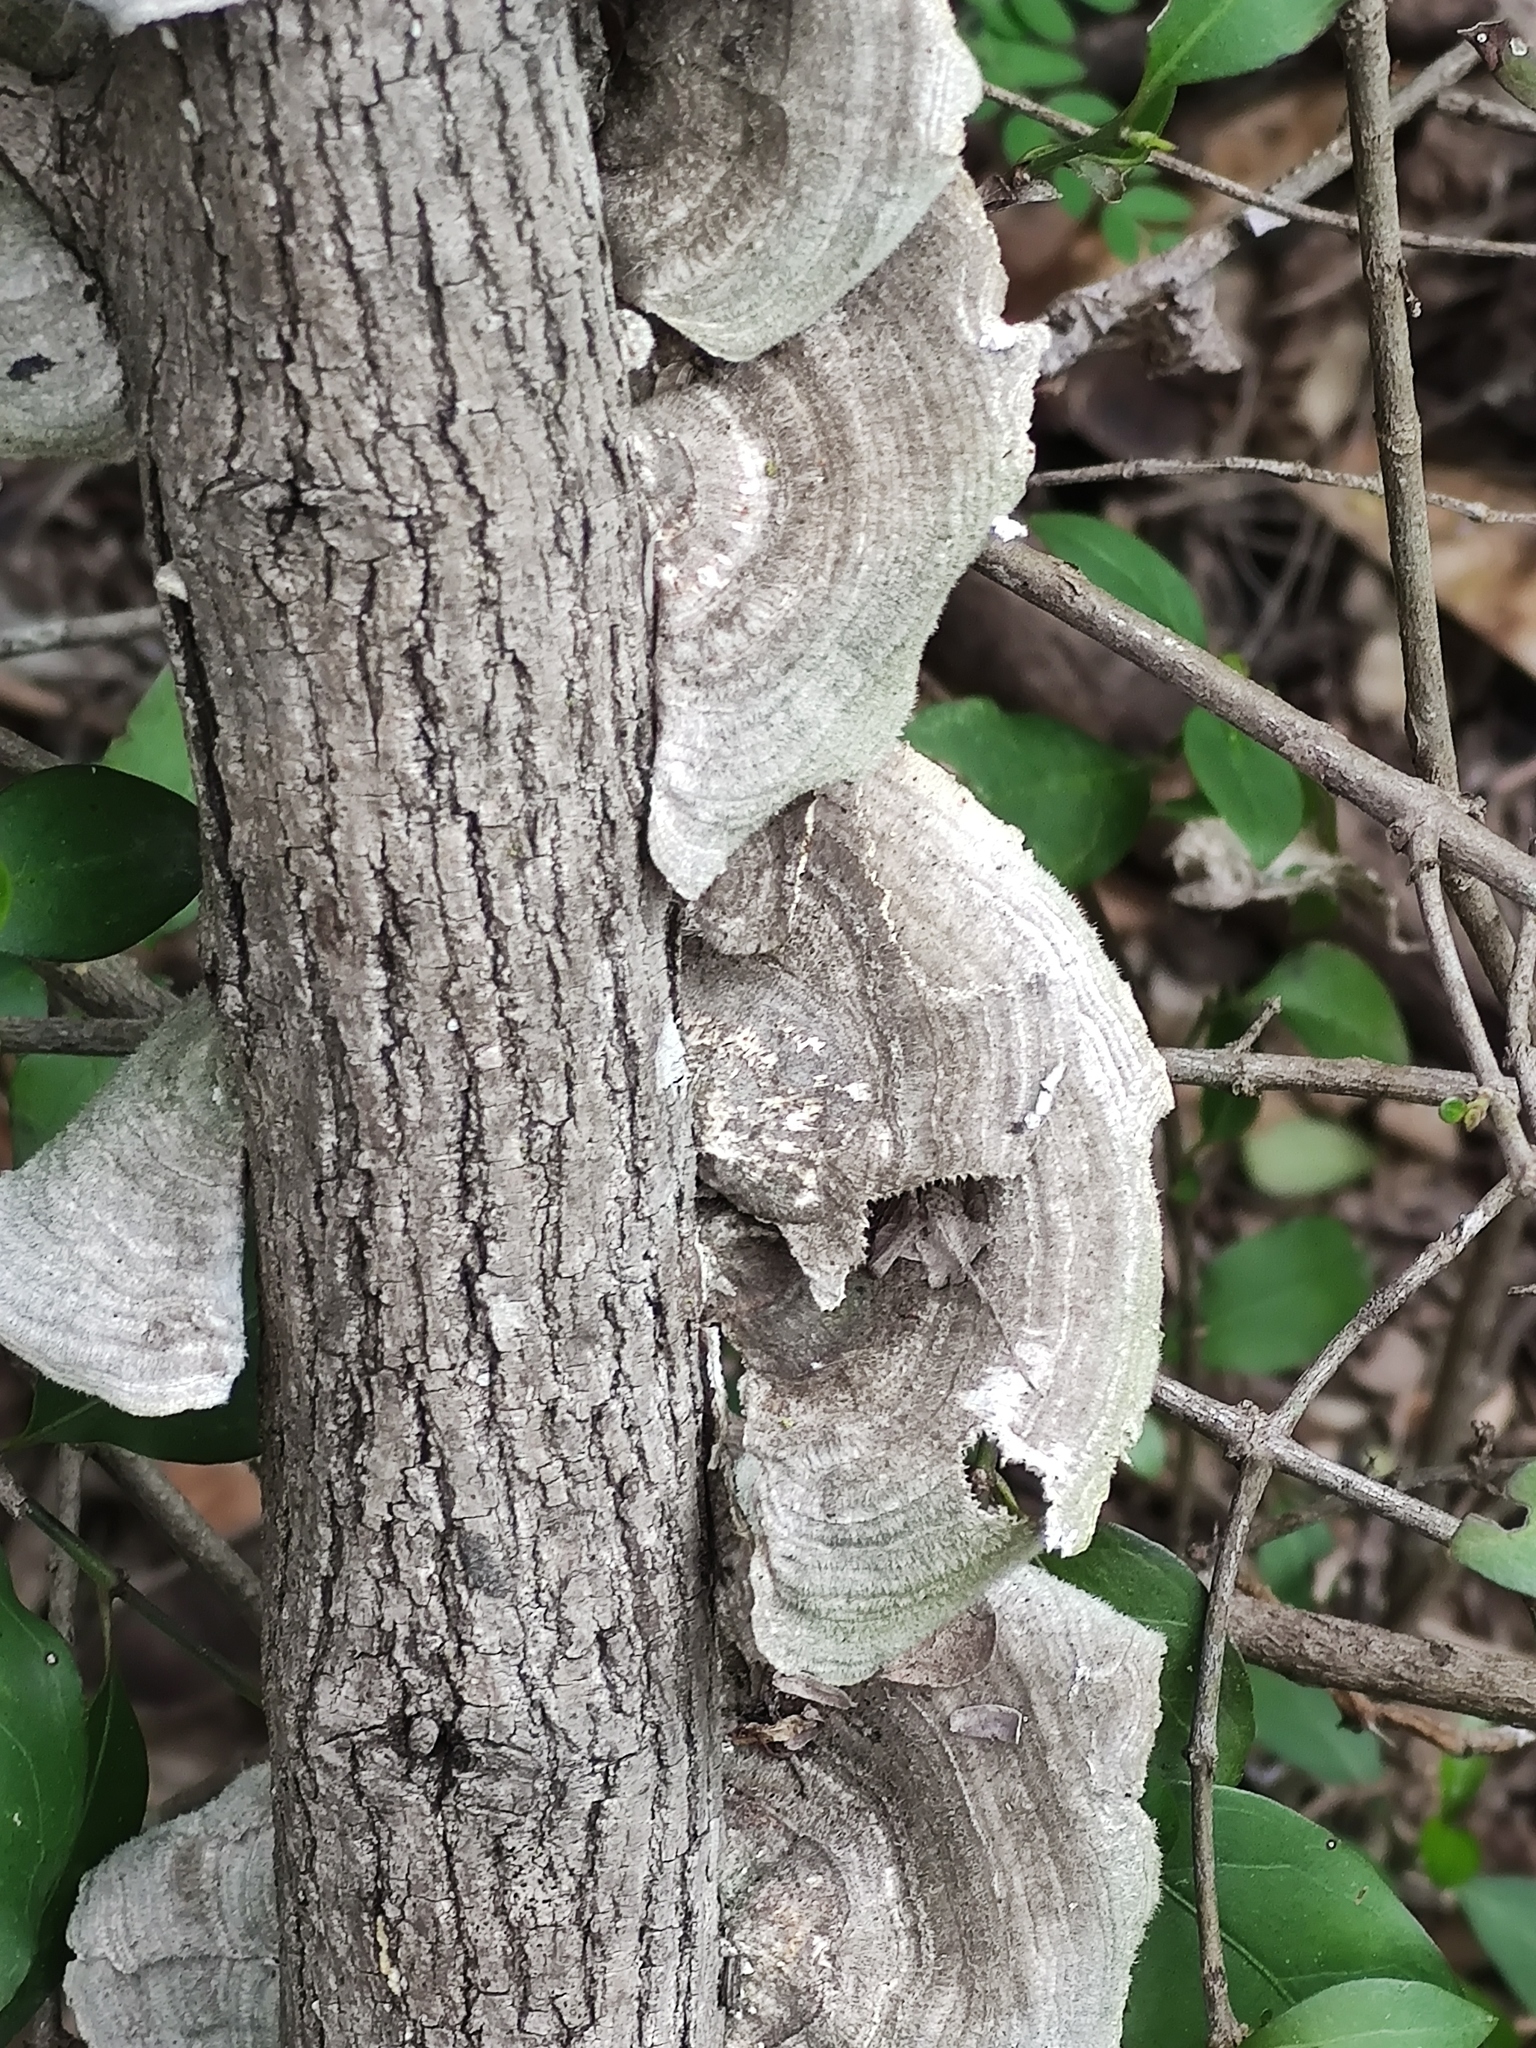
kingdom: Fungi
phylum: Basidiomycota
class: Agaricomycetes
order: Polyporales
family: Polyporaceae
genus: Trametes
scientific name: Trametes villosa
